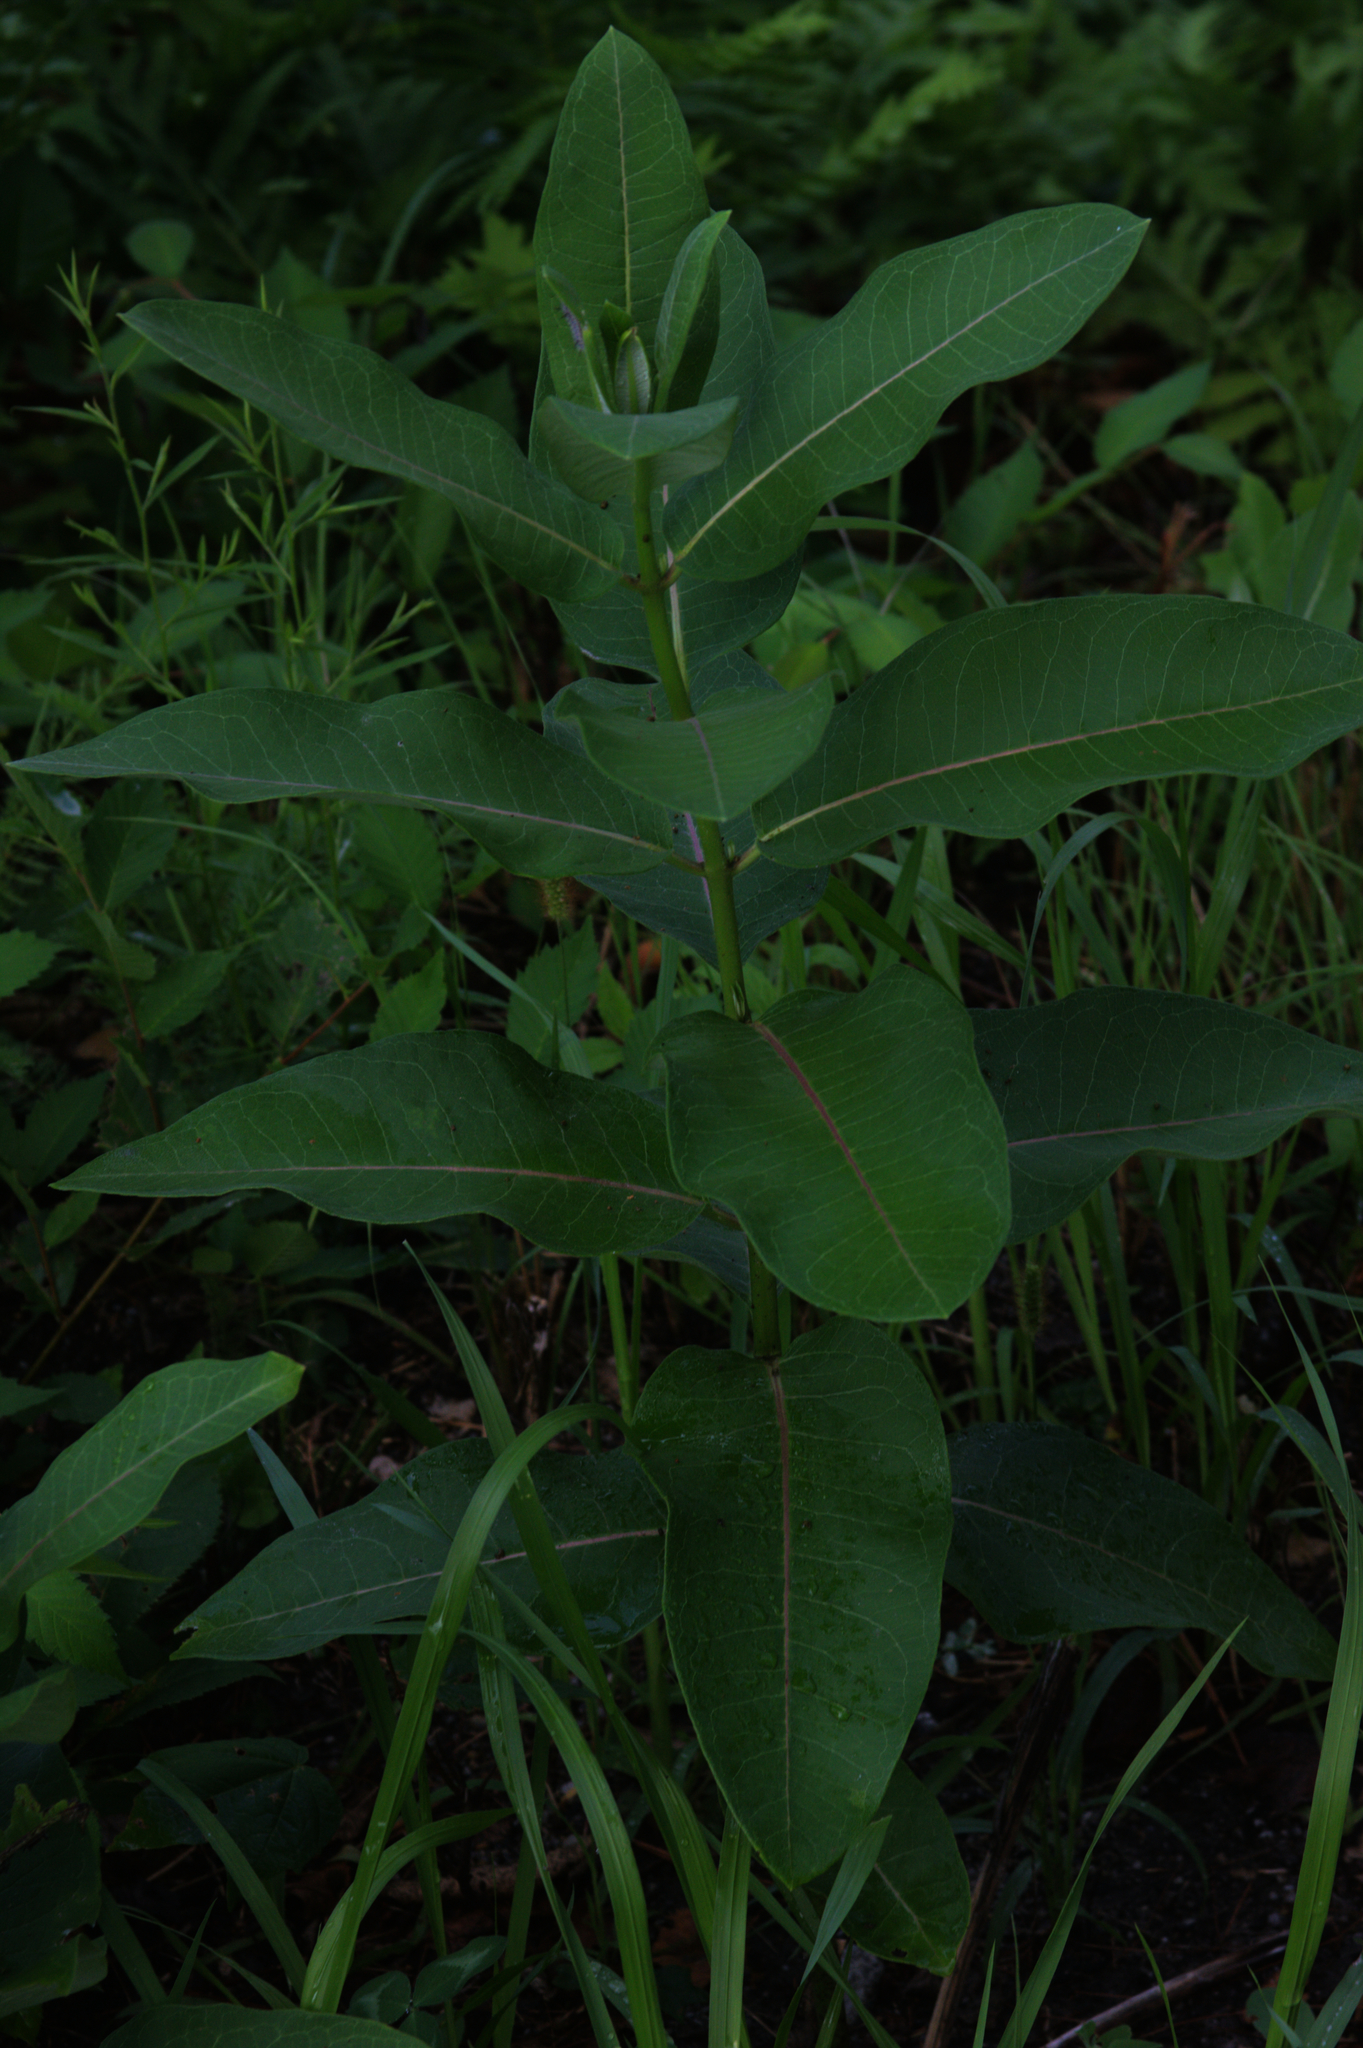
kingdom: Plantae
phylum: Tracheophyta
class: Magnoliopsida
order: Gentianales
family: Apocynaceae
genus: Asclepias
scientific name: Asclepias syriaca
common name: Common milkweed
